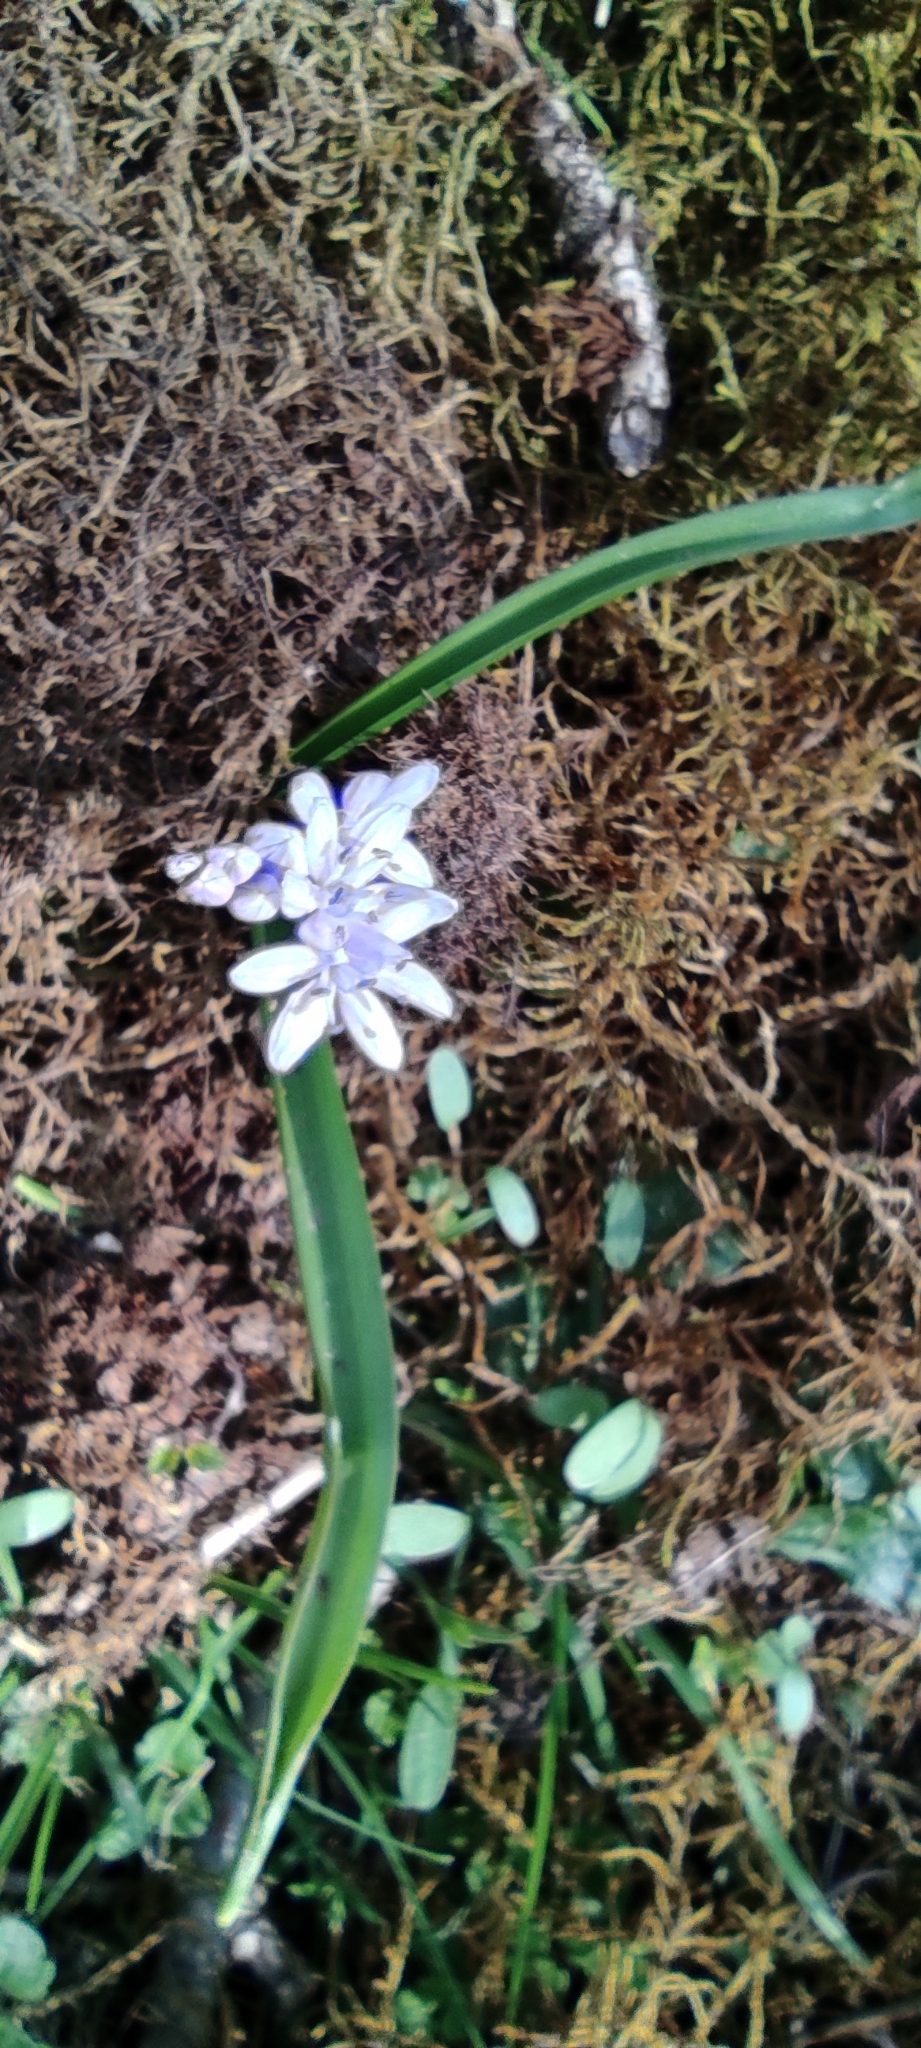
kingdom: Plantae
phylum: Tracheophyta
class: Liliopsida
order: Asparagales
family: Asparagaceae
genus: Scilla
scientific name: Scilla bifolia
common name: Alpine squill
